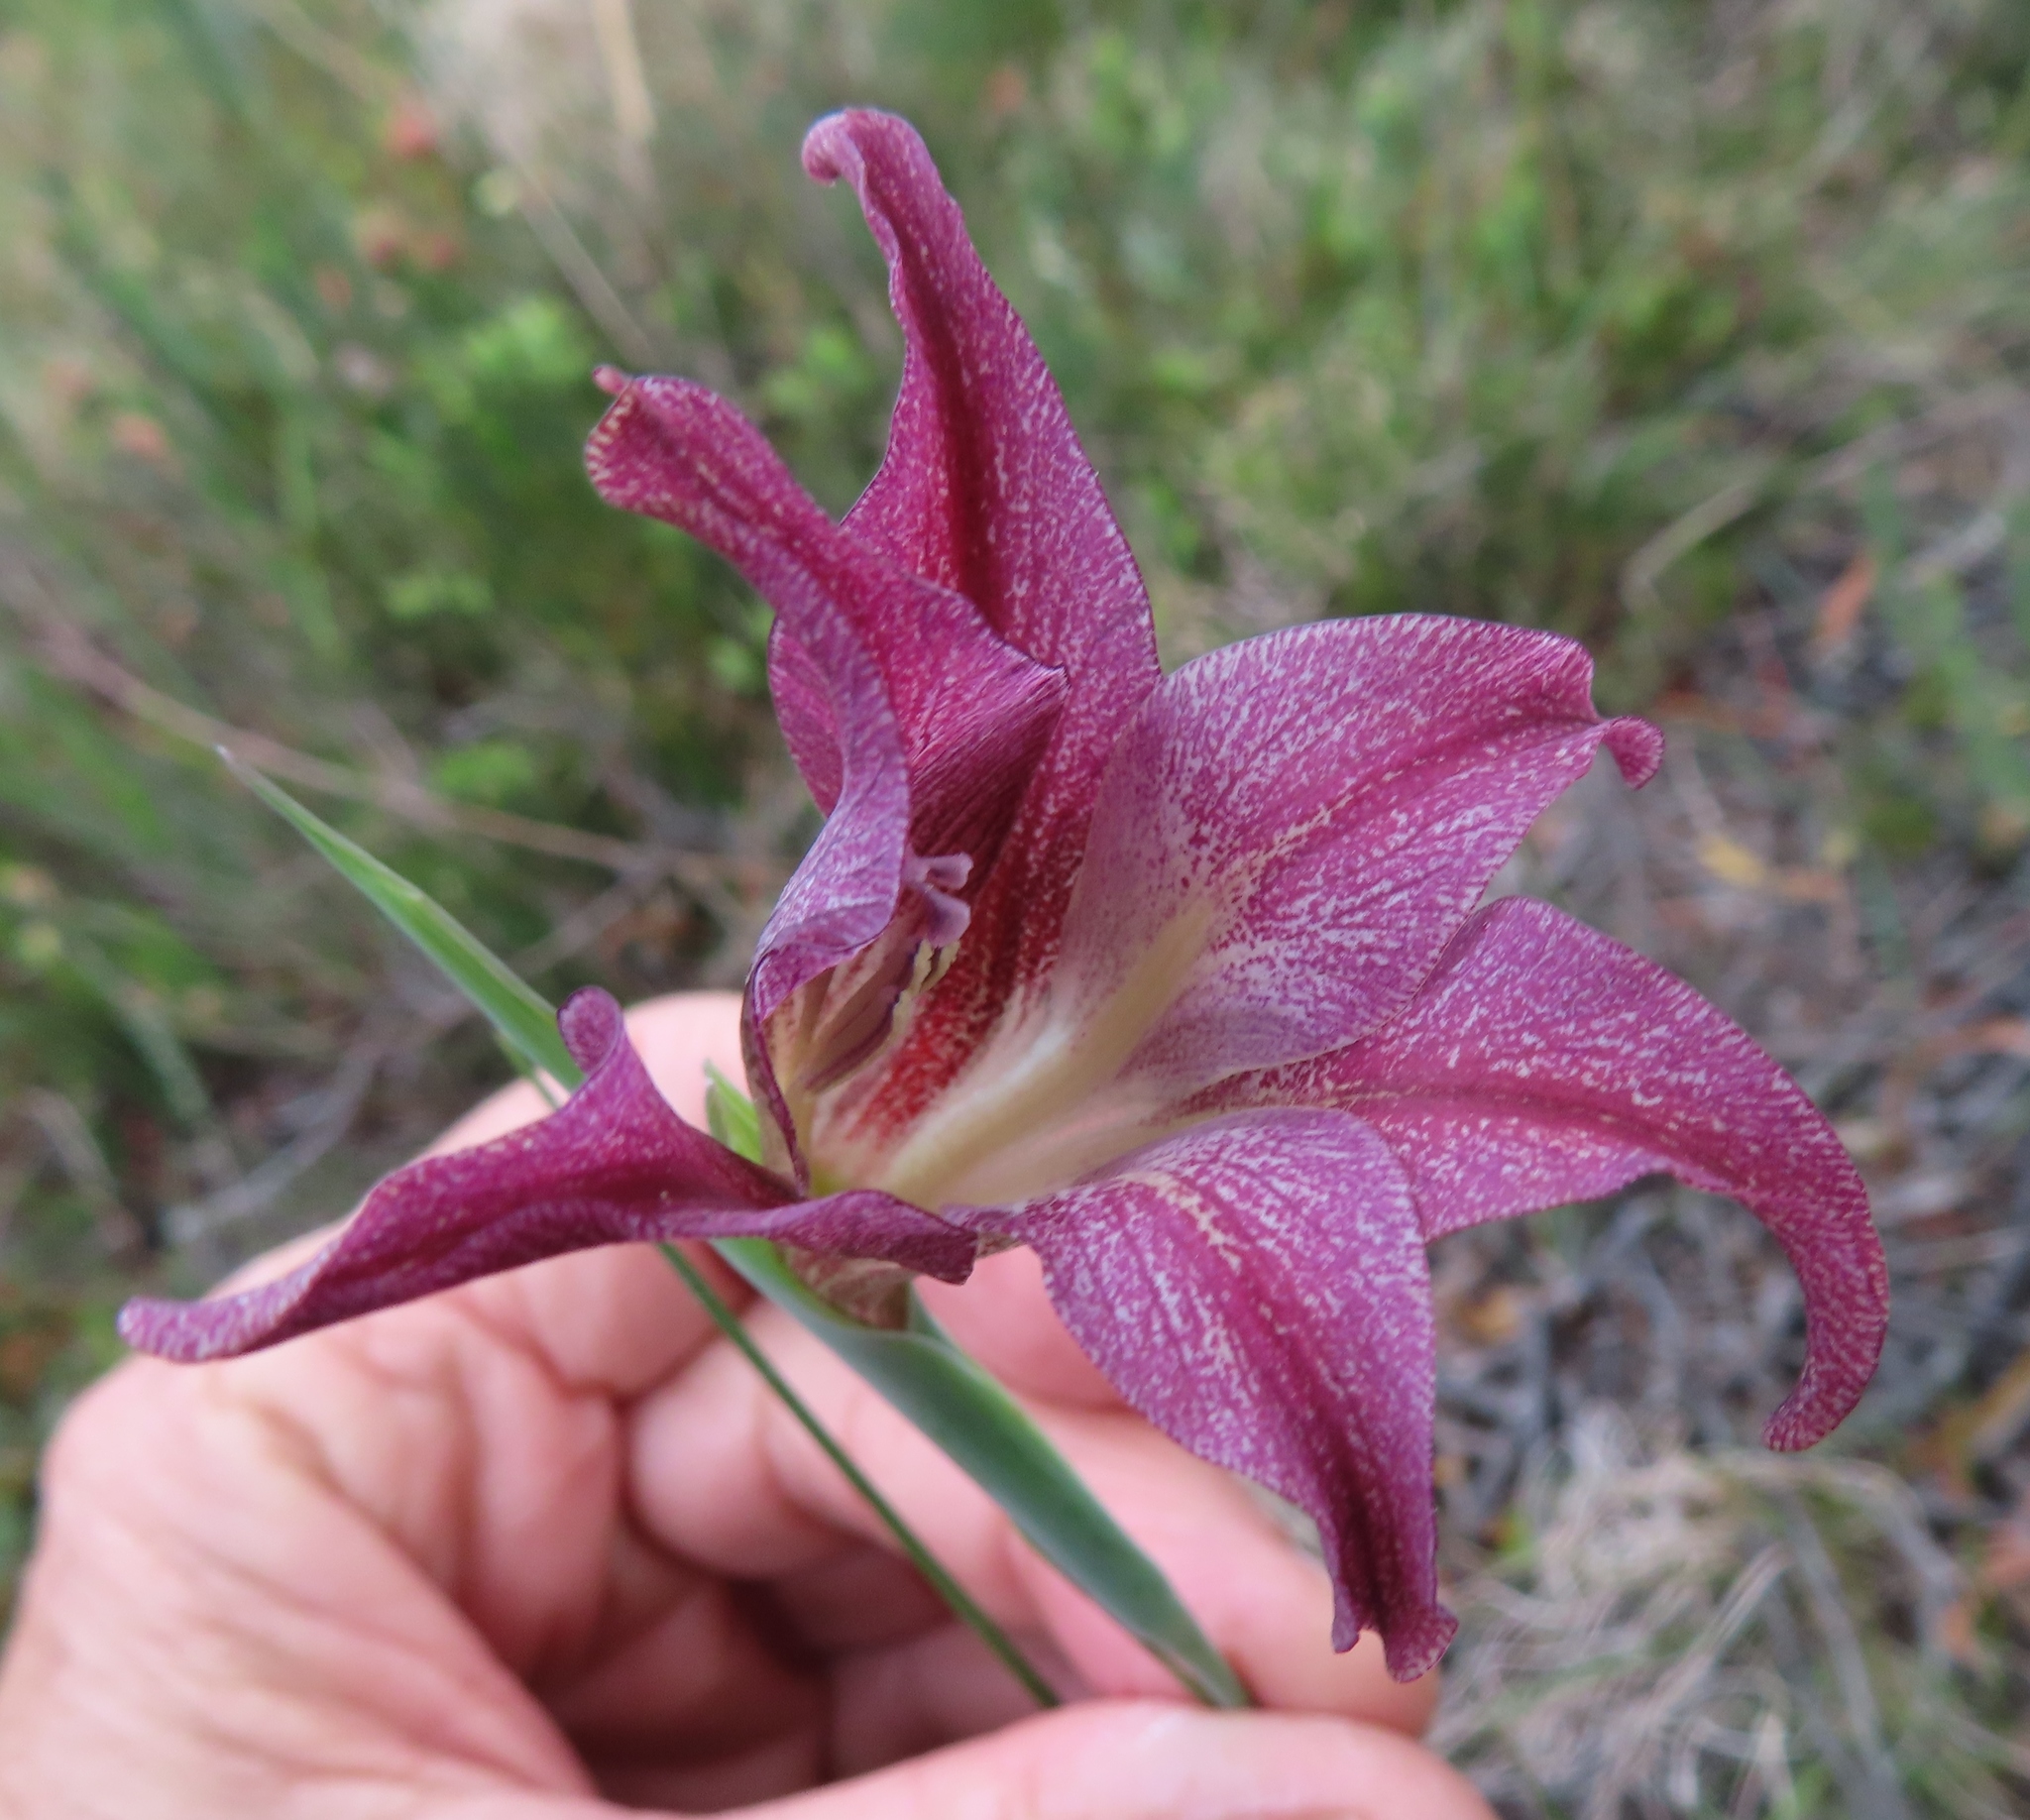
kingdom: Plantae
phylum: Tracheophyta
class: Liliopsida
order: Asparagales
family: Iridaceae
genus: Gladiolus
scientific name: Gladiolus liliaceus
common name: Large brown afrikaner
